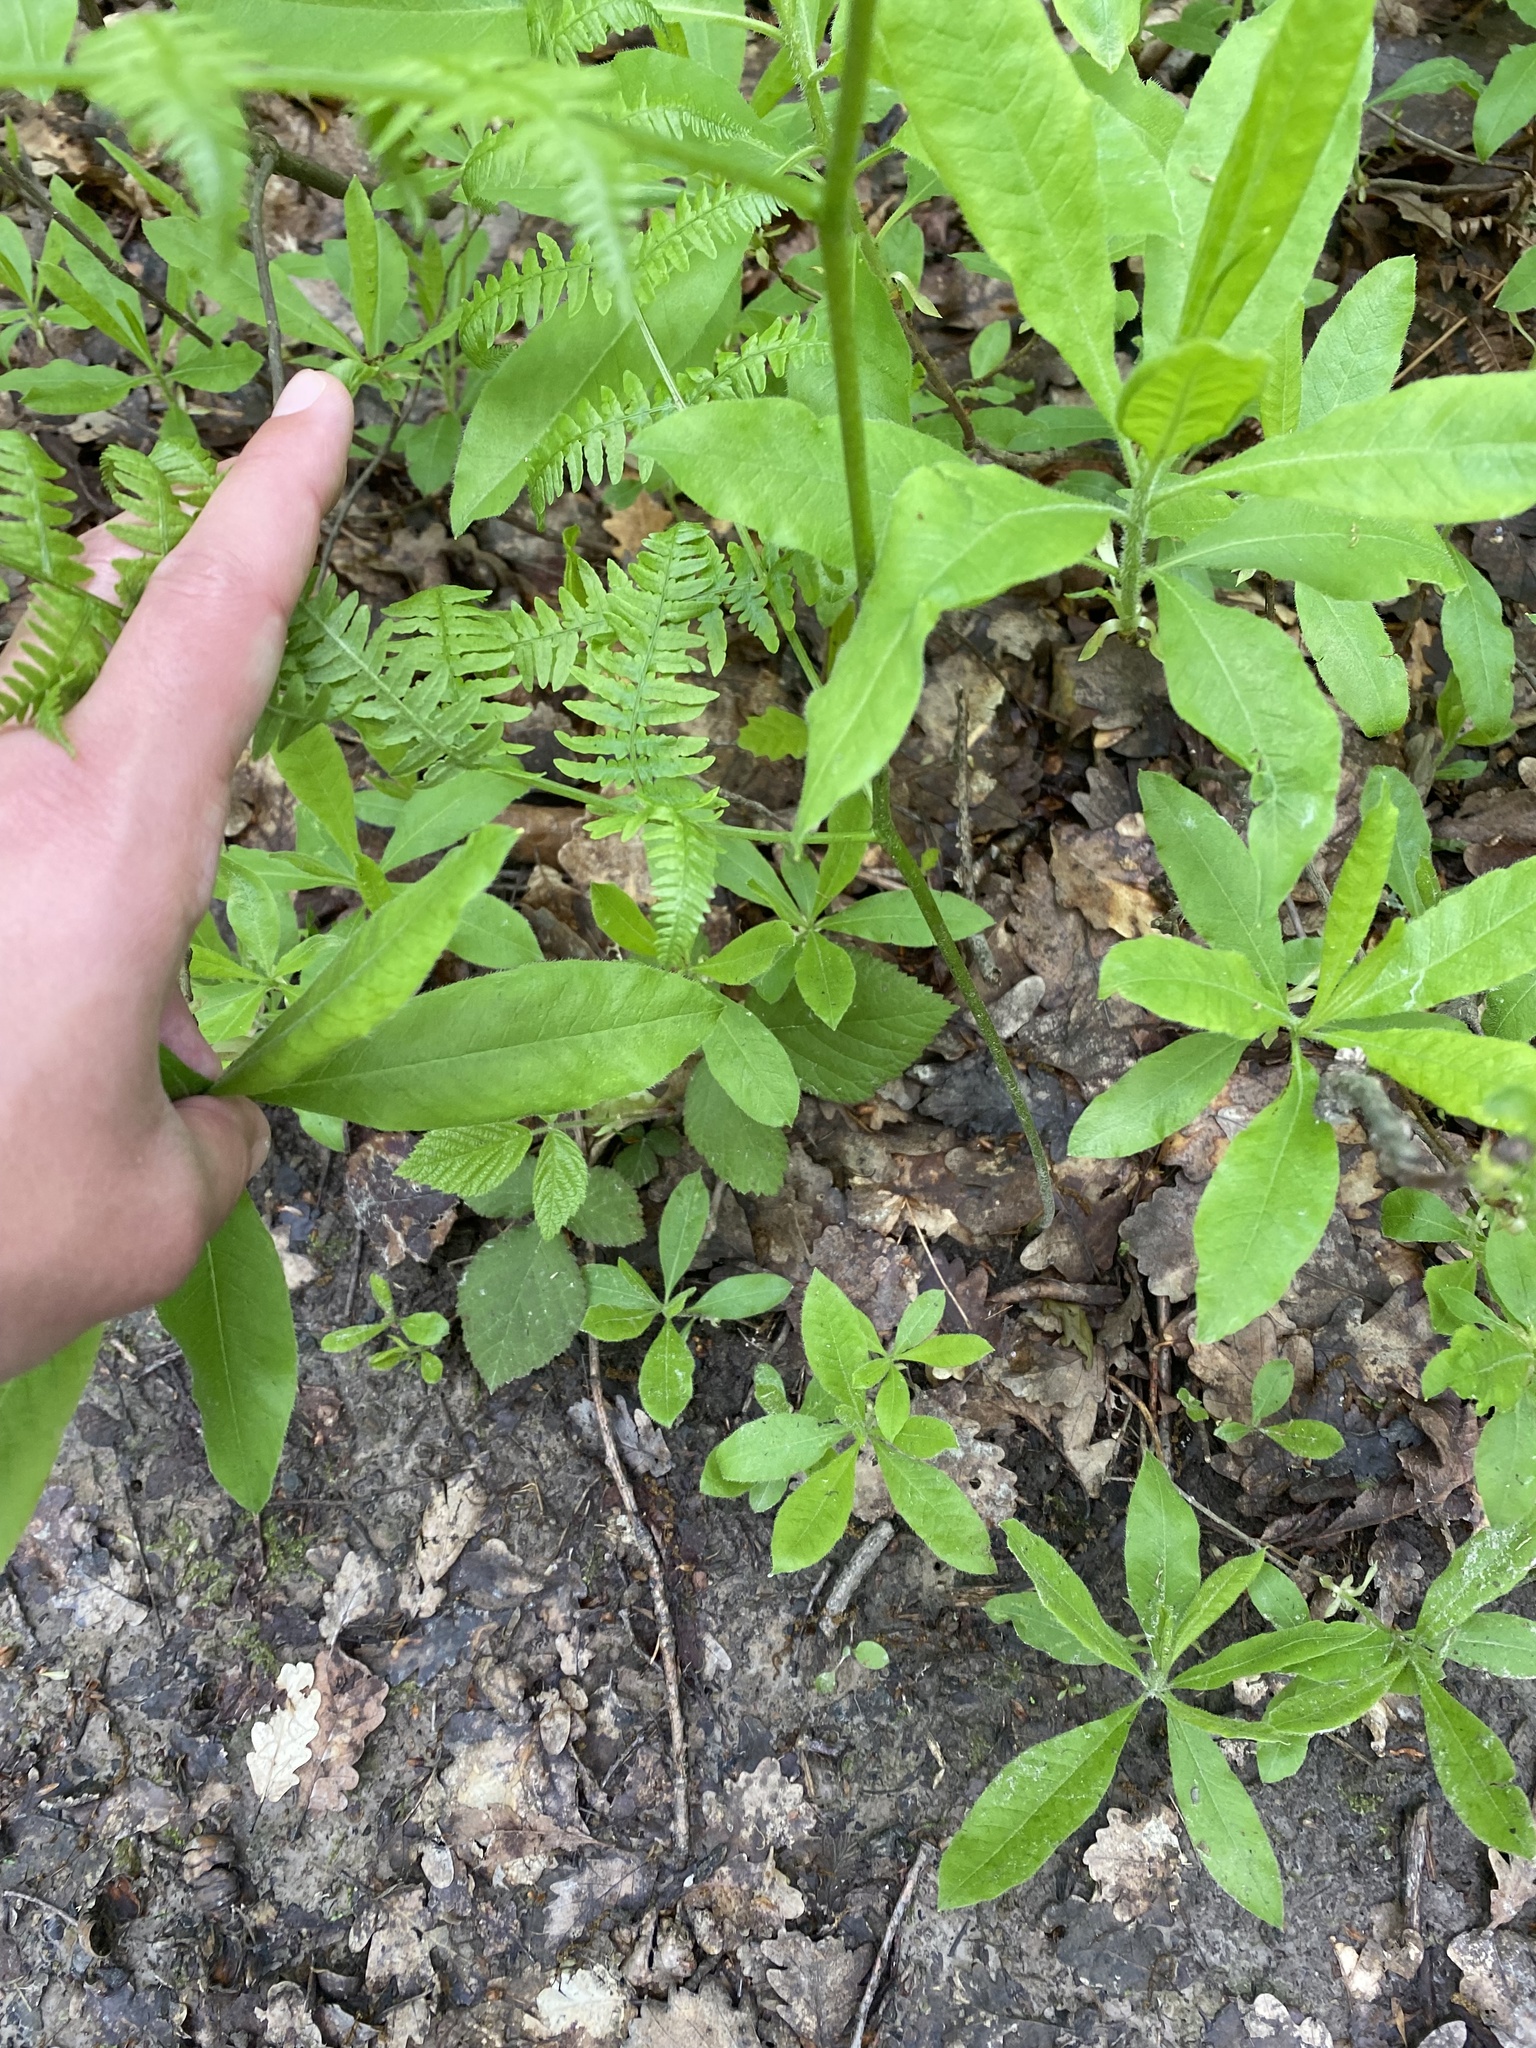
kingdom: Plantae
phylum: Tracheophyta
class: Polypodiopsida
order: Polypodiales
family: Dennstaedtiaceae
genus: Pteridium
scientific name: Pteridium tauricum
